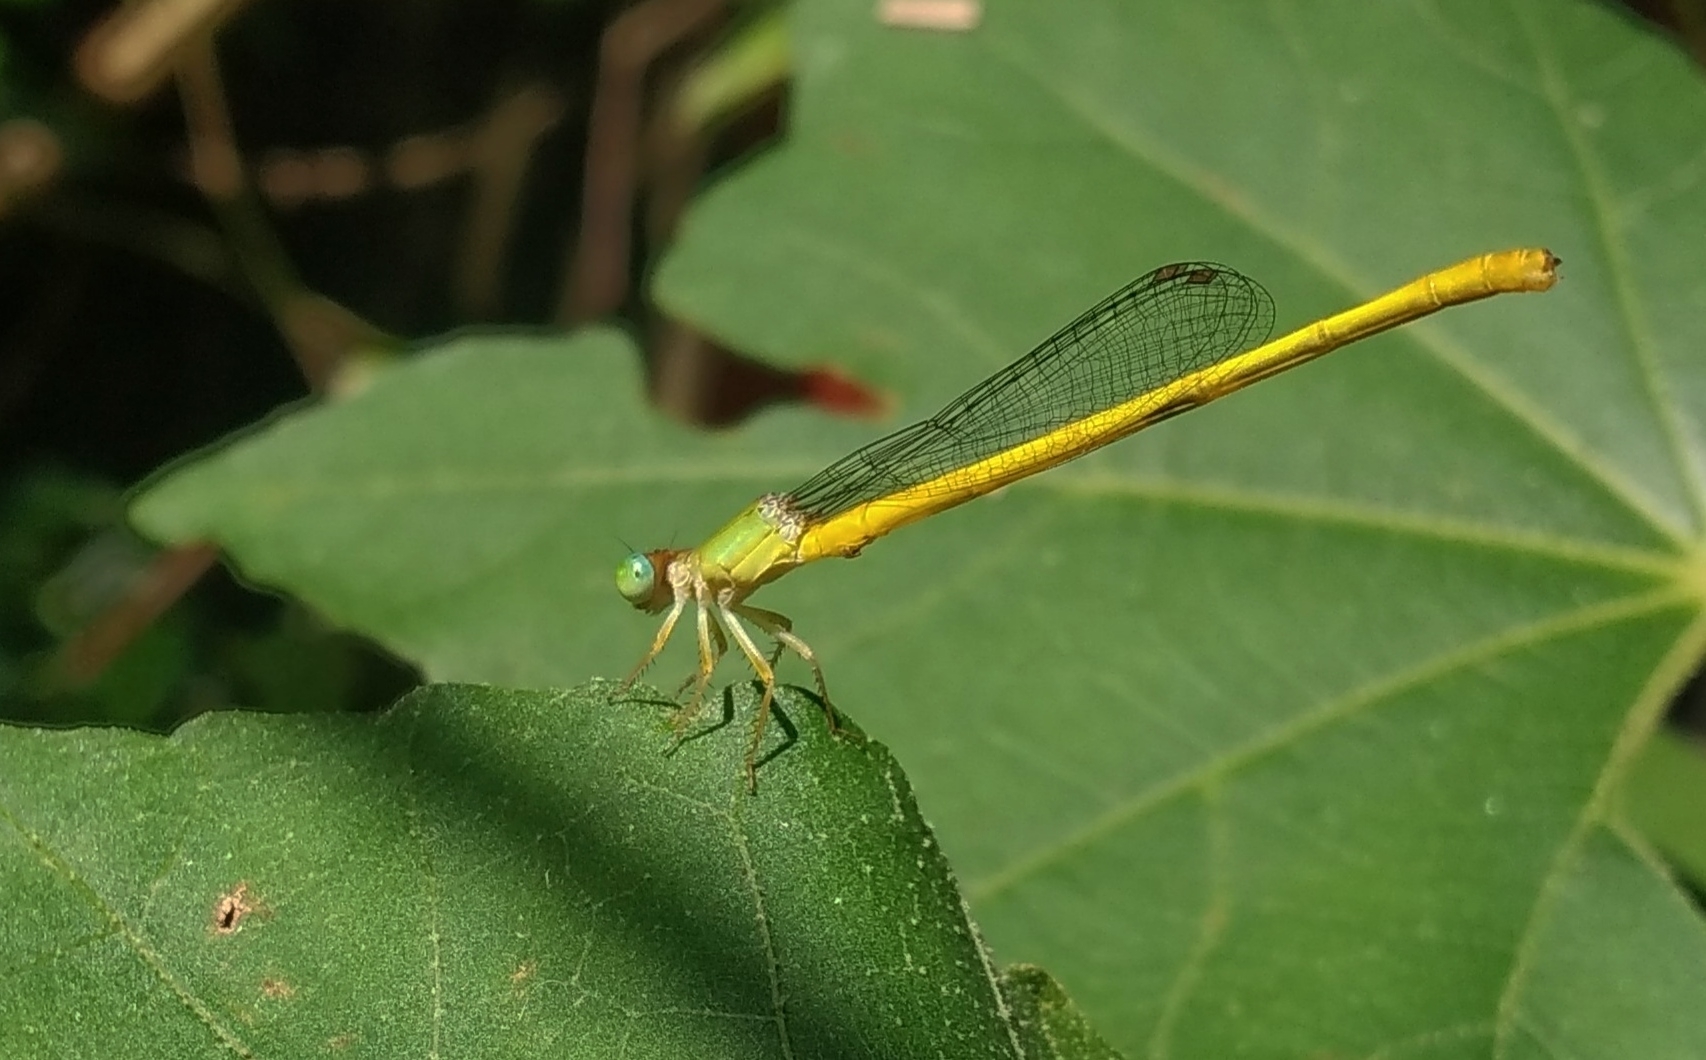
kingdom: Animalia
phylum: Arthropoda
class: Insecta
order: Odonata
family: Coenagrionidae
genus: Ceriagrion
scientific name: Ceriagrion coromandelianum
